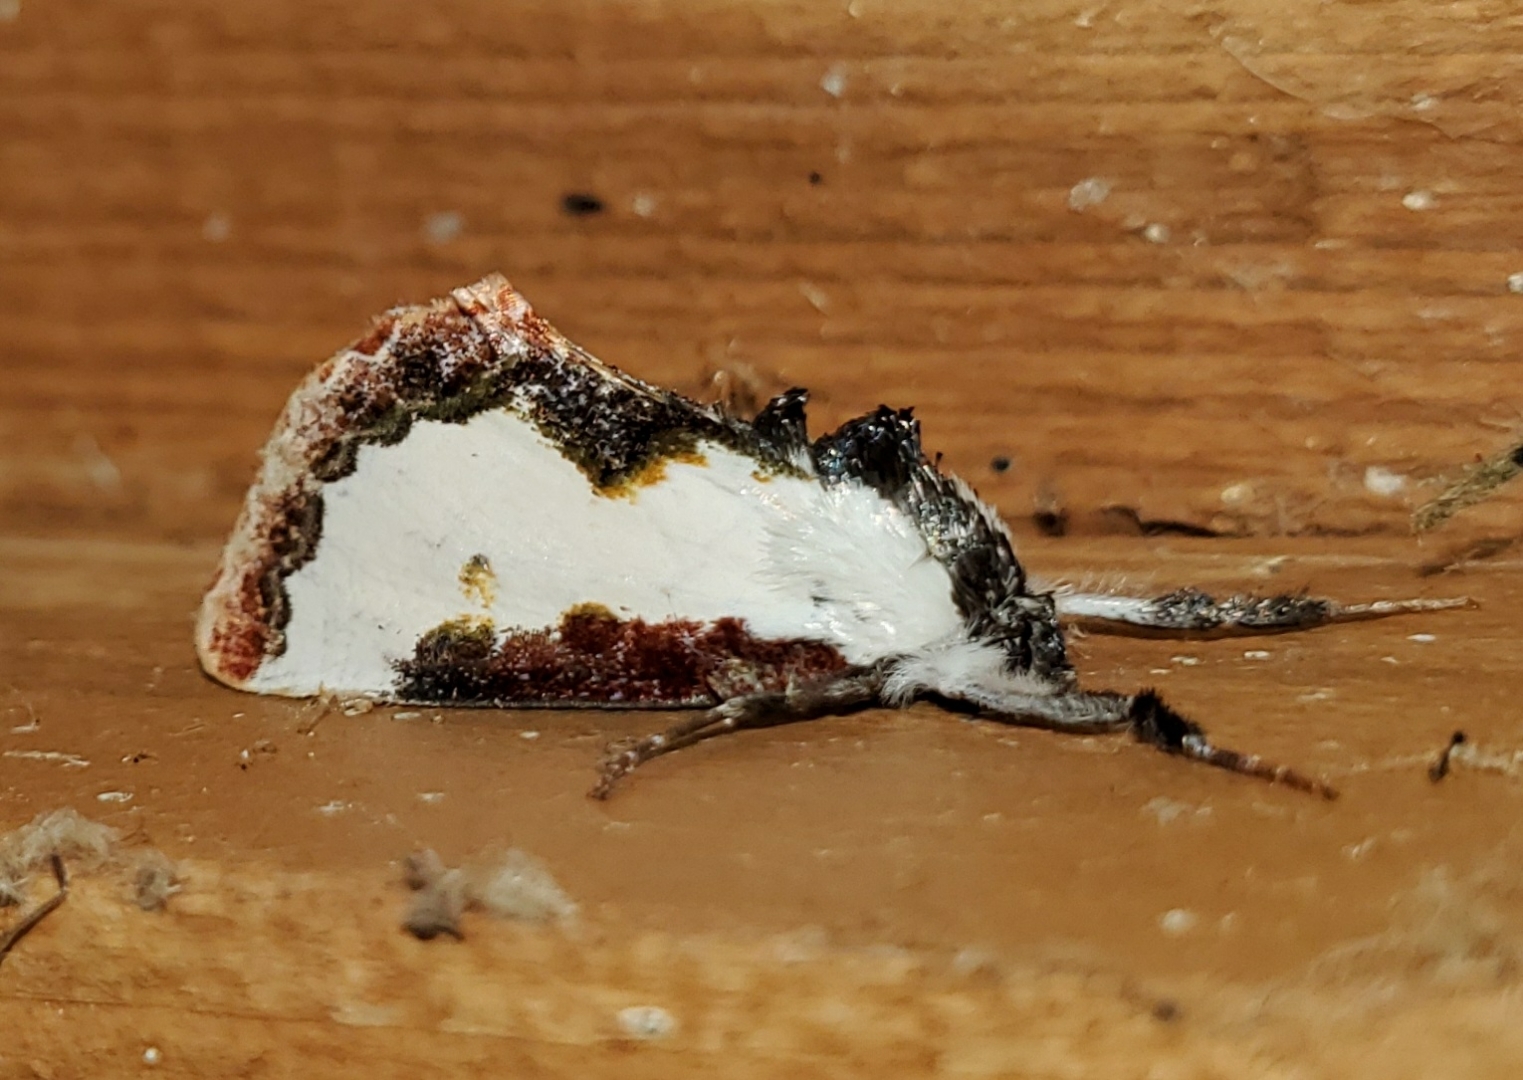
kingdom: Animalia
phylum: Arthropoda
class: Insecta
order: Lepidoptera
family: Noctuidae
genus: Eudryas
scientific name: Eudryas unio
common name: Pearly wood-nymph
